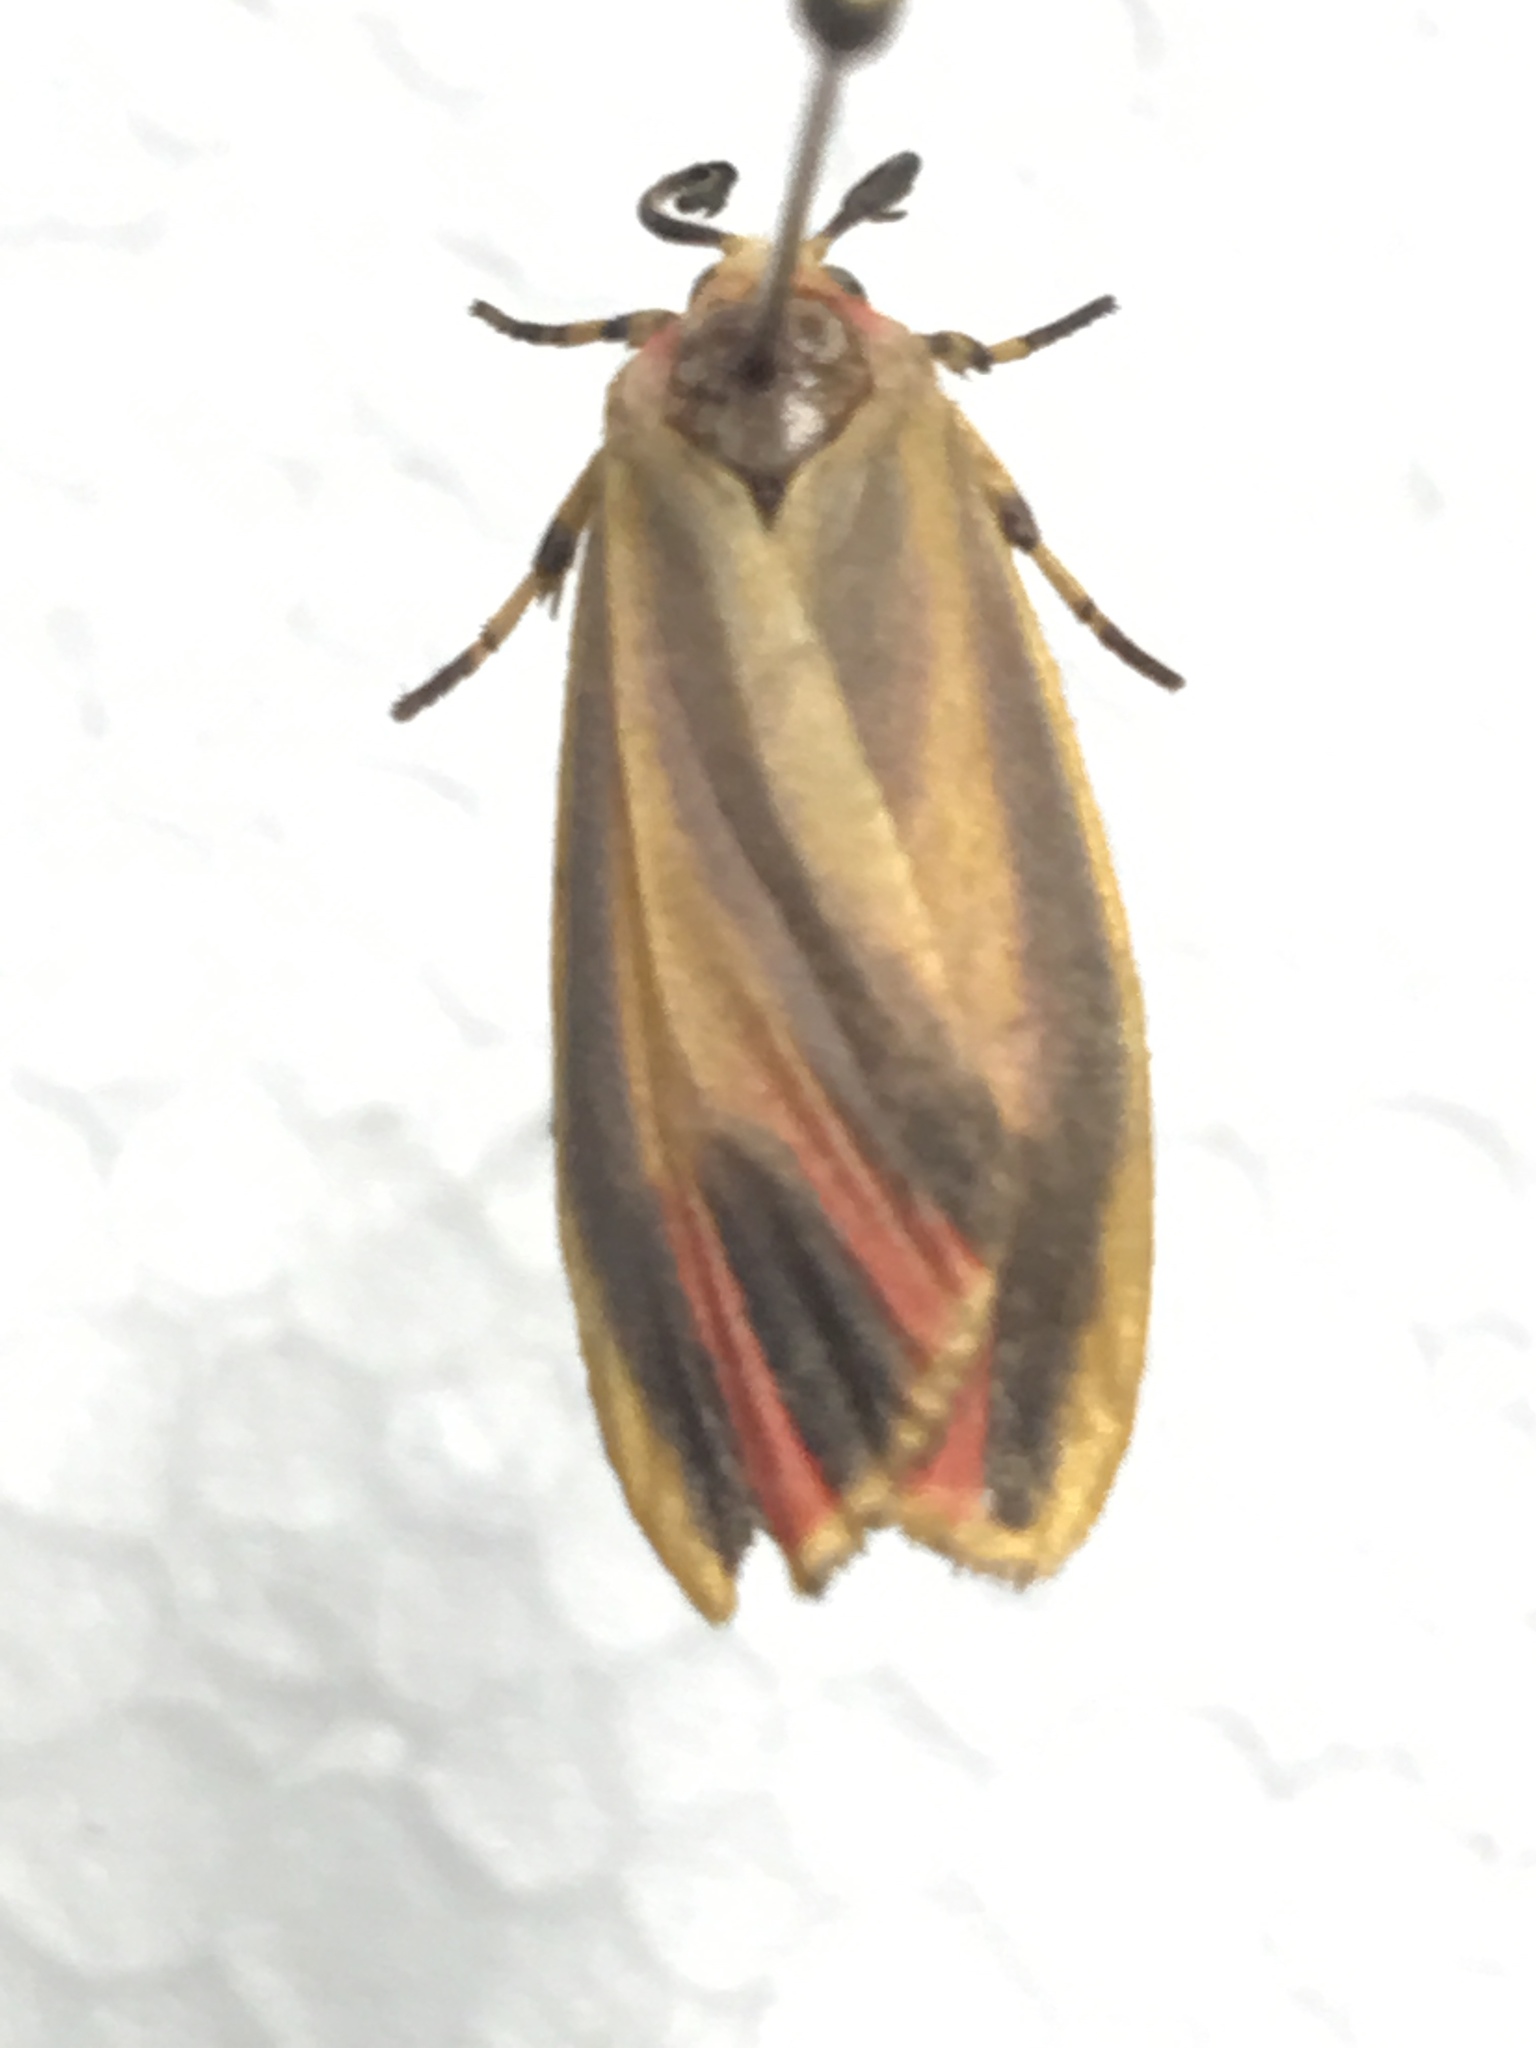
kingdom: Animalia
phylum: Arthropoda
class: Insecta
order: Lepidoptera
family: Erebidae
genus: Hypoprepia
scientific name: Hypoprepia fucosa
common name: Painted lichen moth
